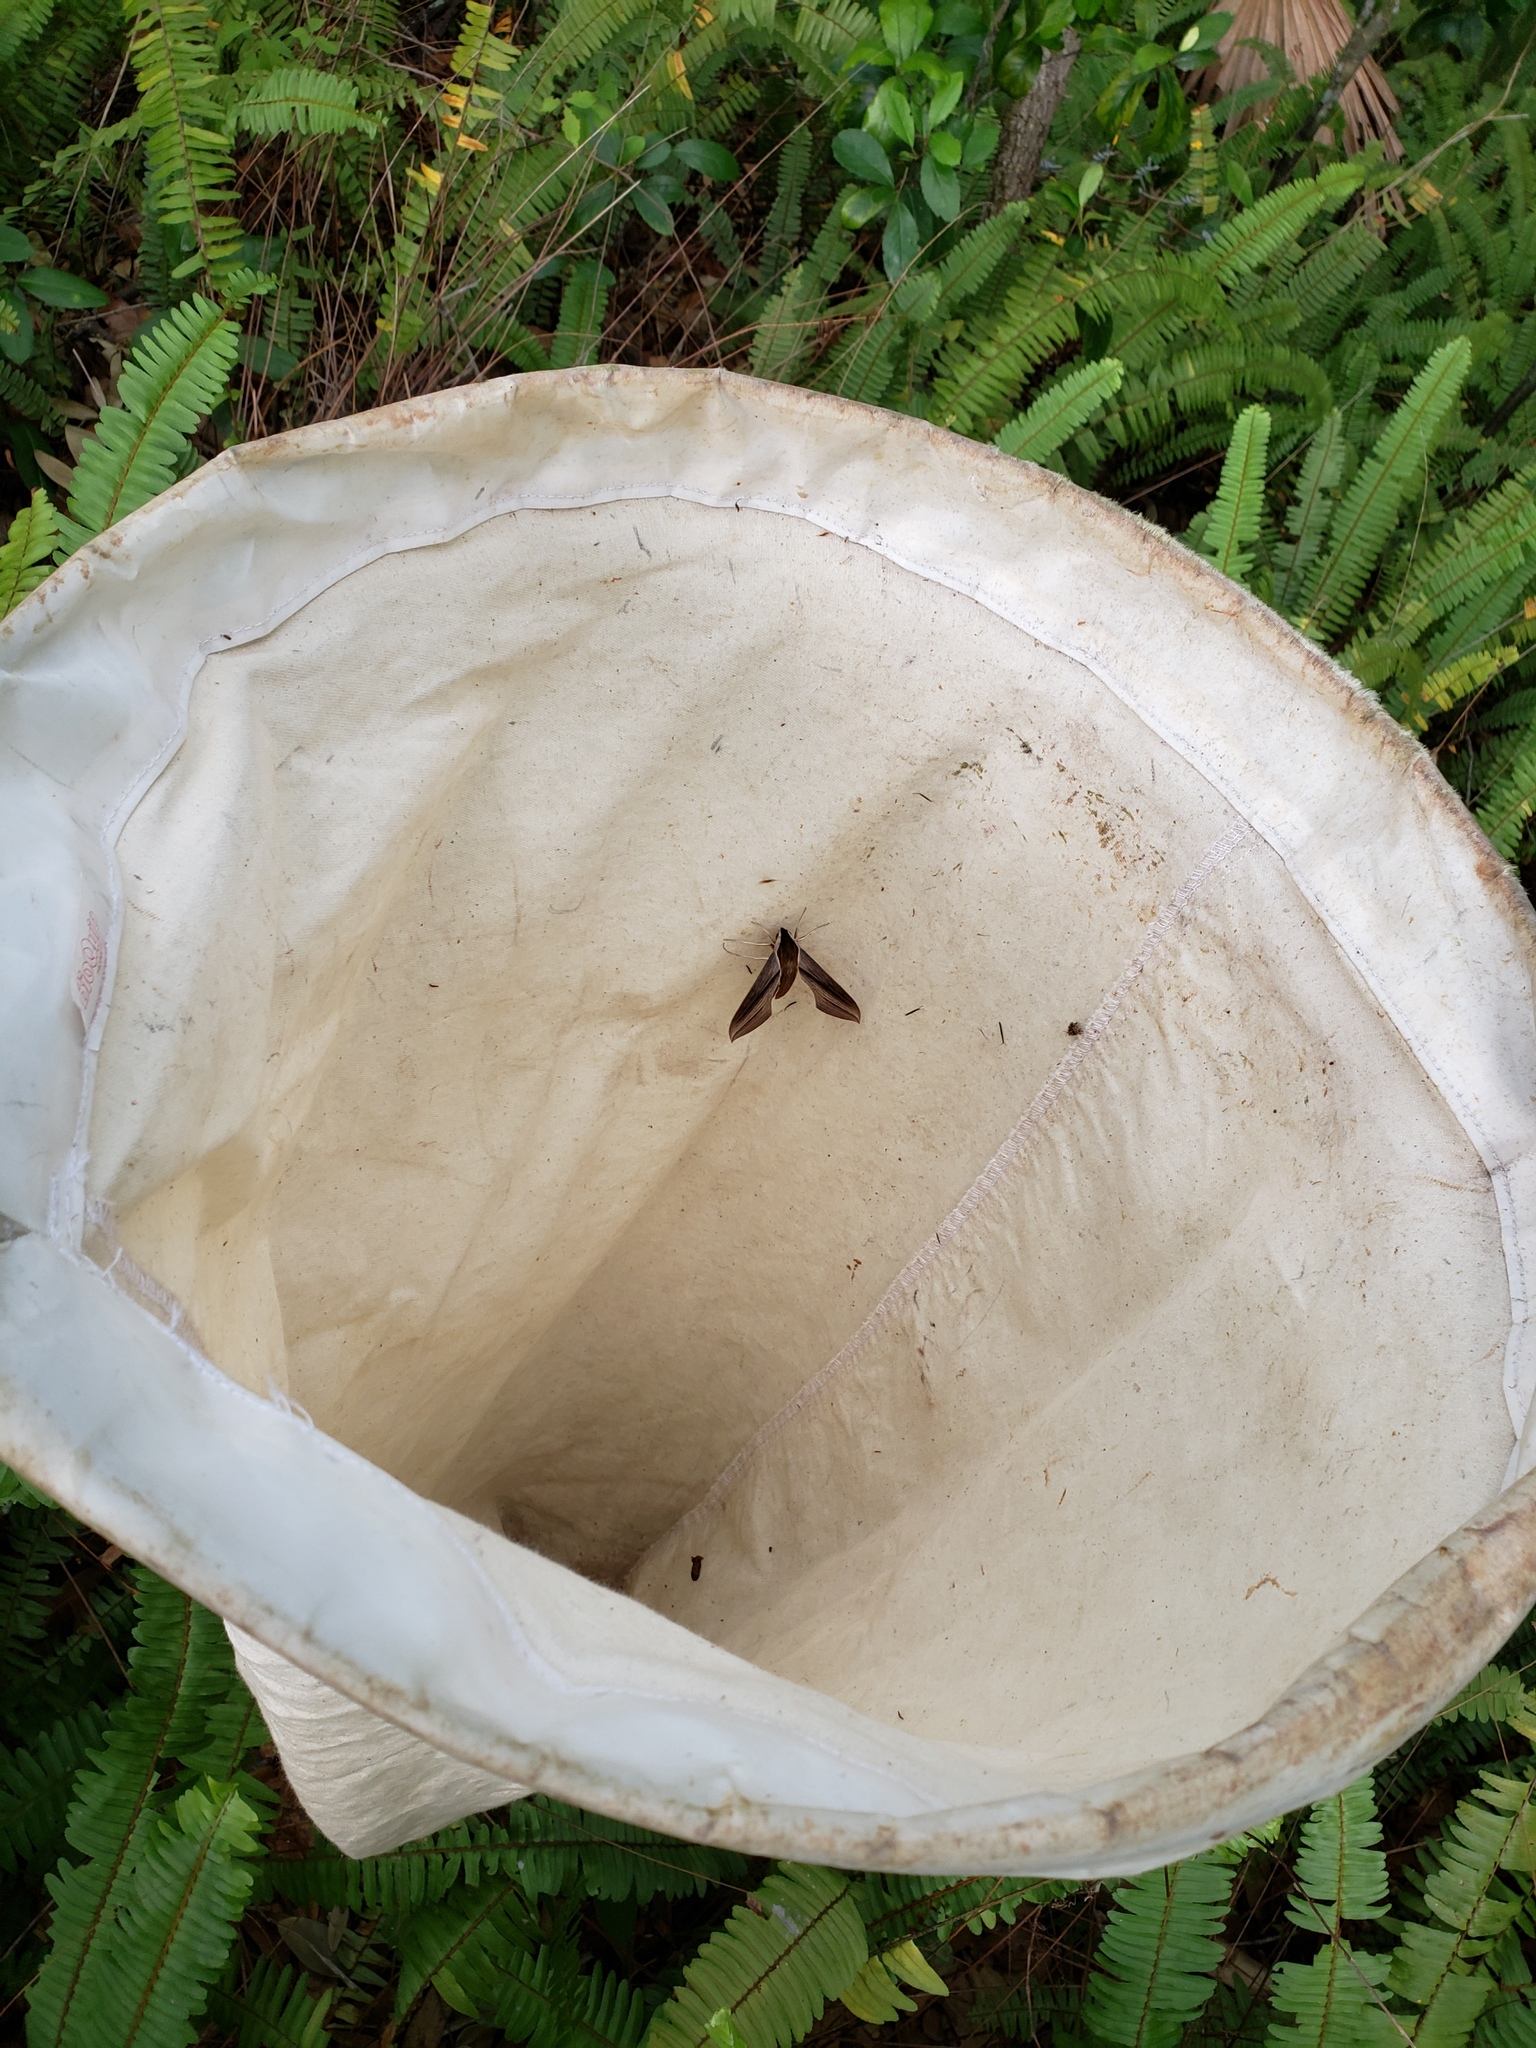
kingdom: Animalia
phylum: Arthropoda
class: Insecta
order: Lepidoptera
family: Sphingidae
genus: Xylophanes
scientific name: Xylophanes tersa
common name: Tersa sphinx
